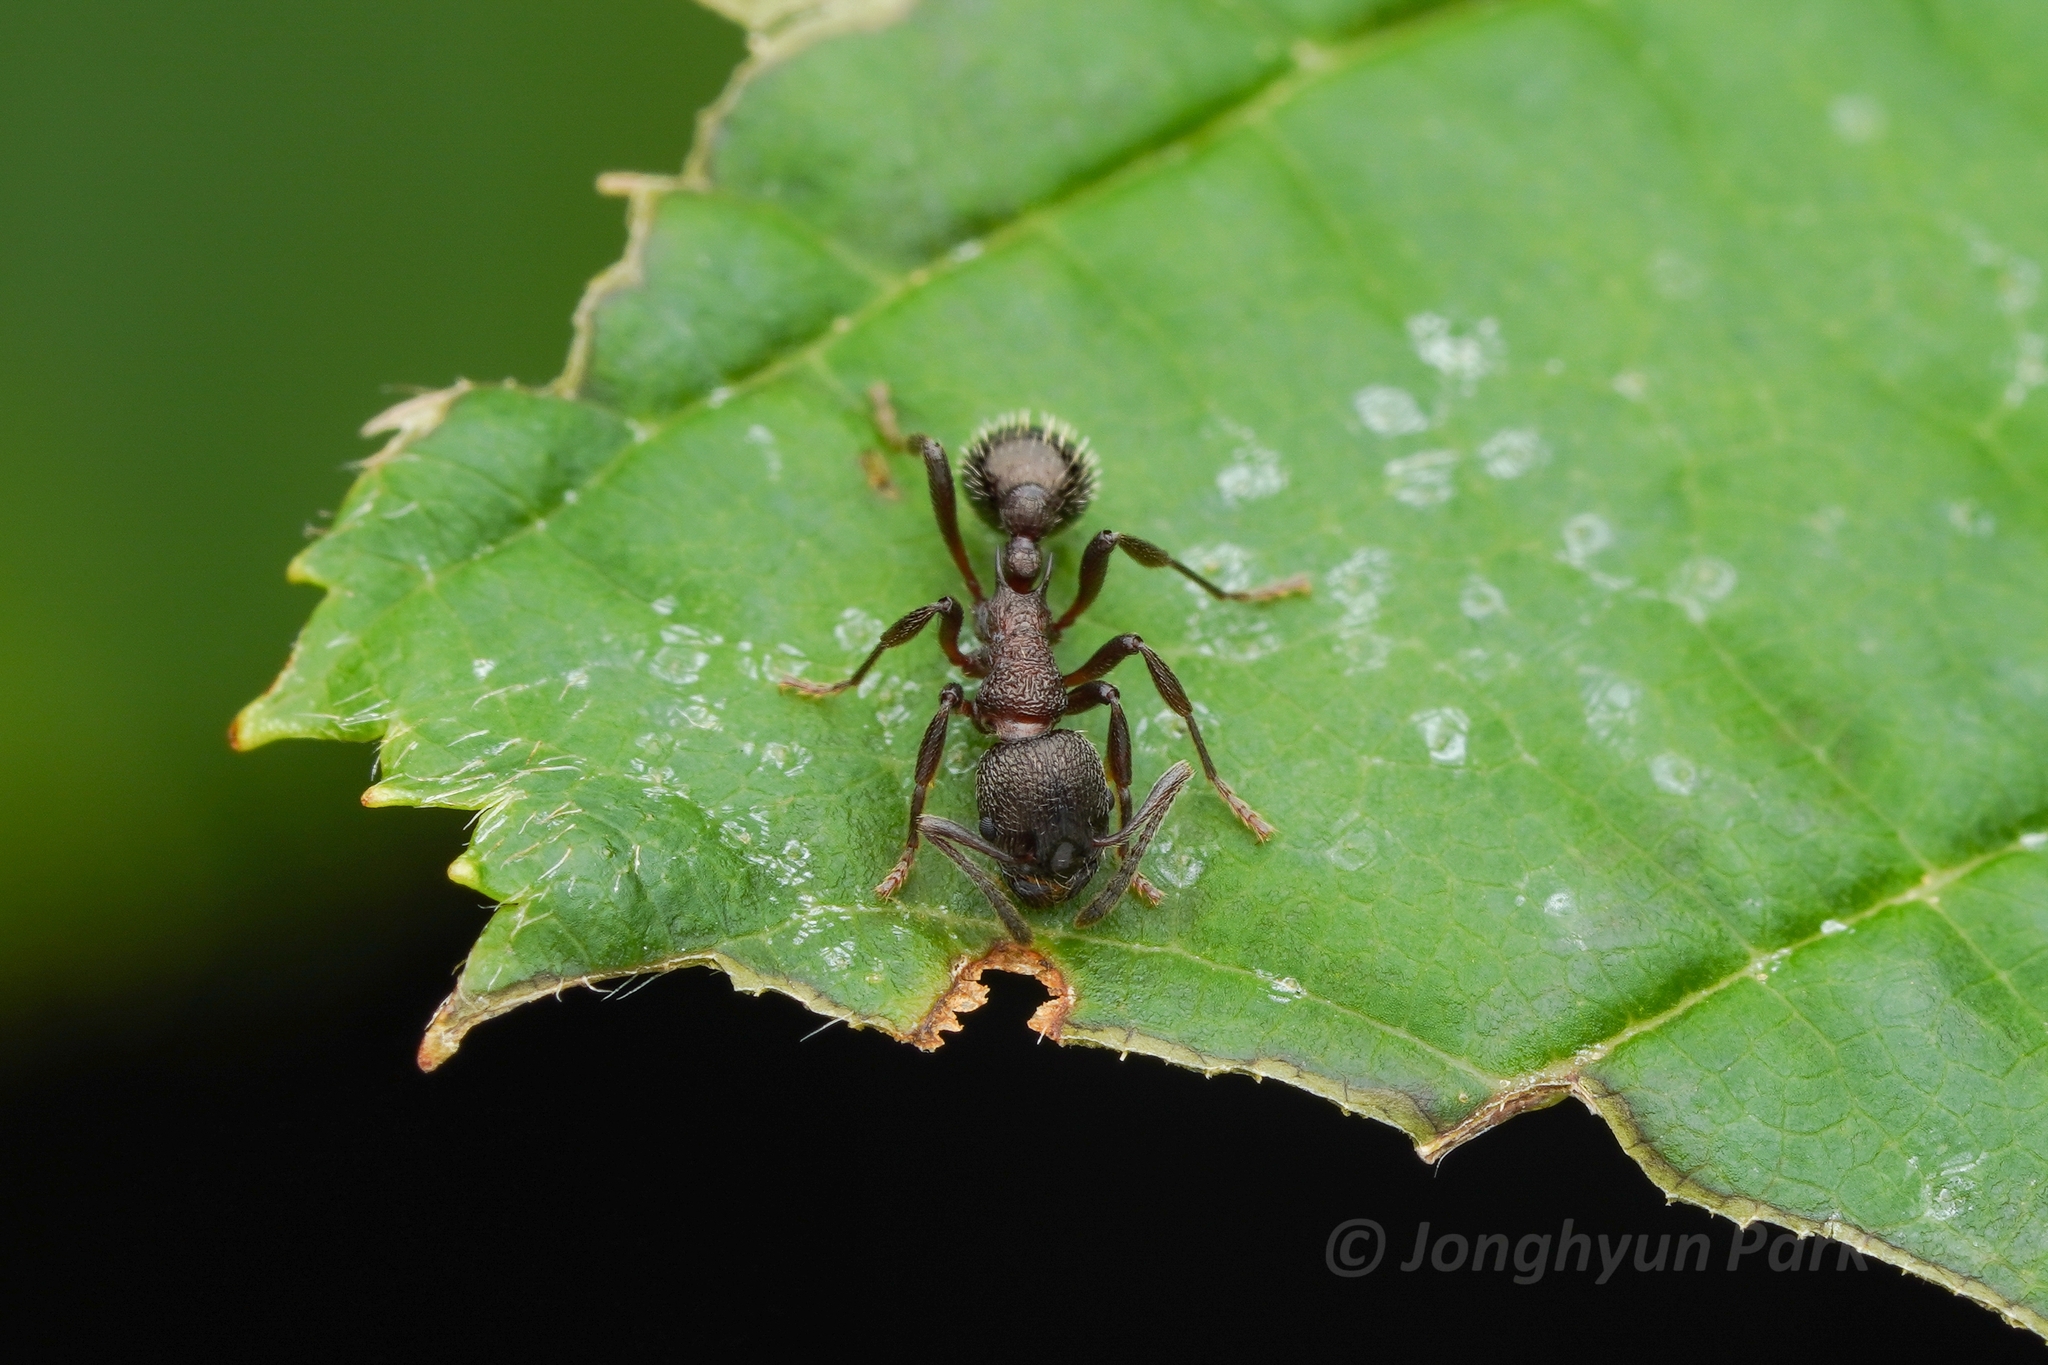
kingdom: Animalia
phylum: Arthropoda
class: Insecta
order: Hymenoptera
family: Formicidae
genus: Myrmica
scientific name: Myrmica kurokii
